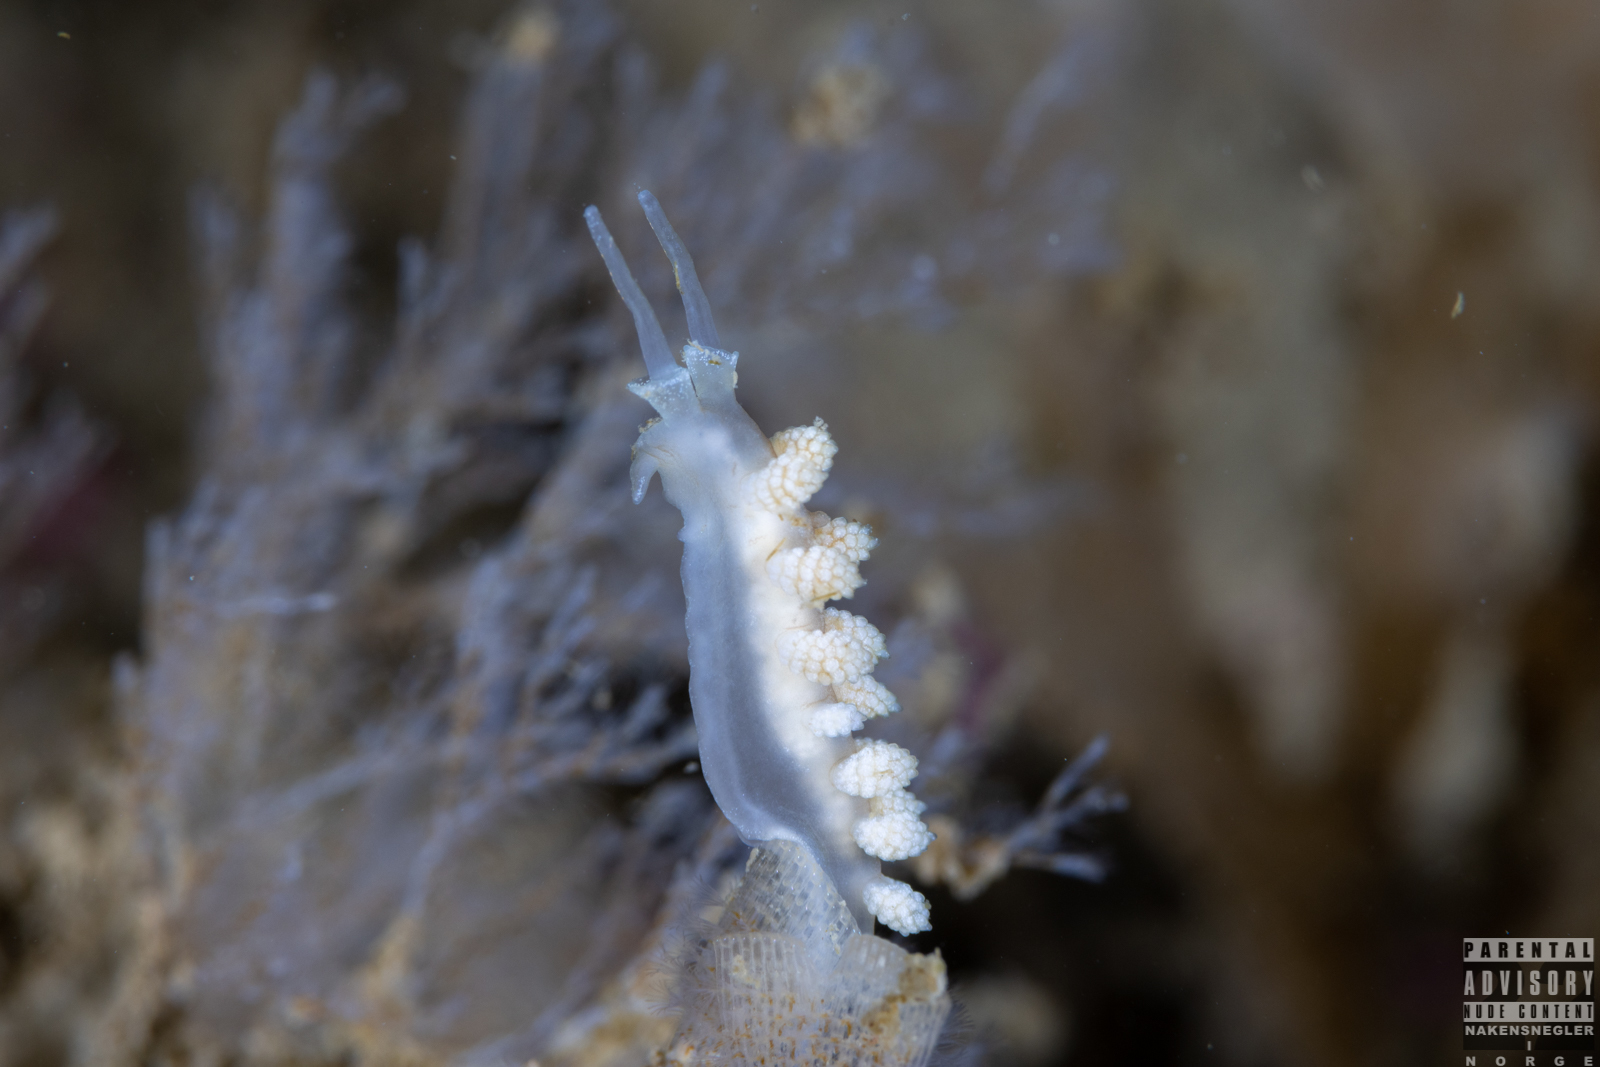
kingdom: Animalia
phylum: Mollusca
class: Gastropoda
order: Nudibranchia
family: Dotidae
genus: Doto
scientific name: Doto fragilis
